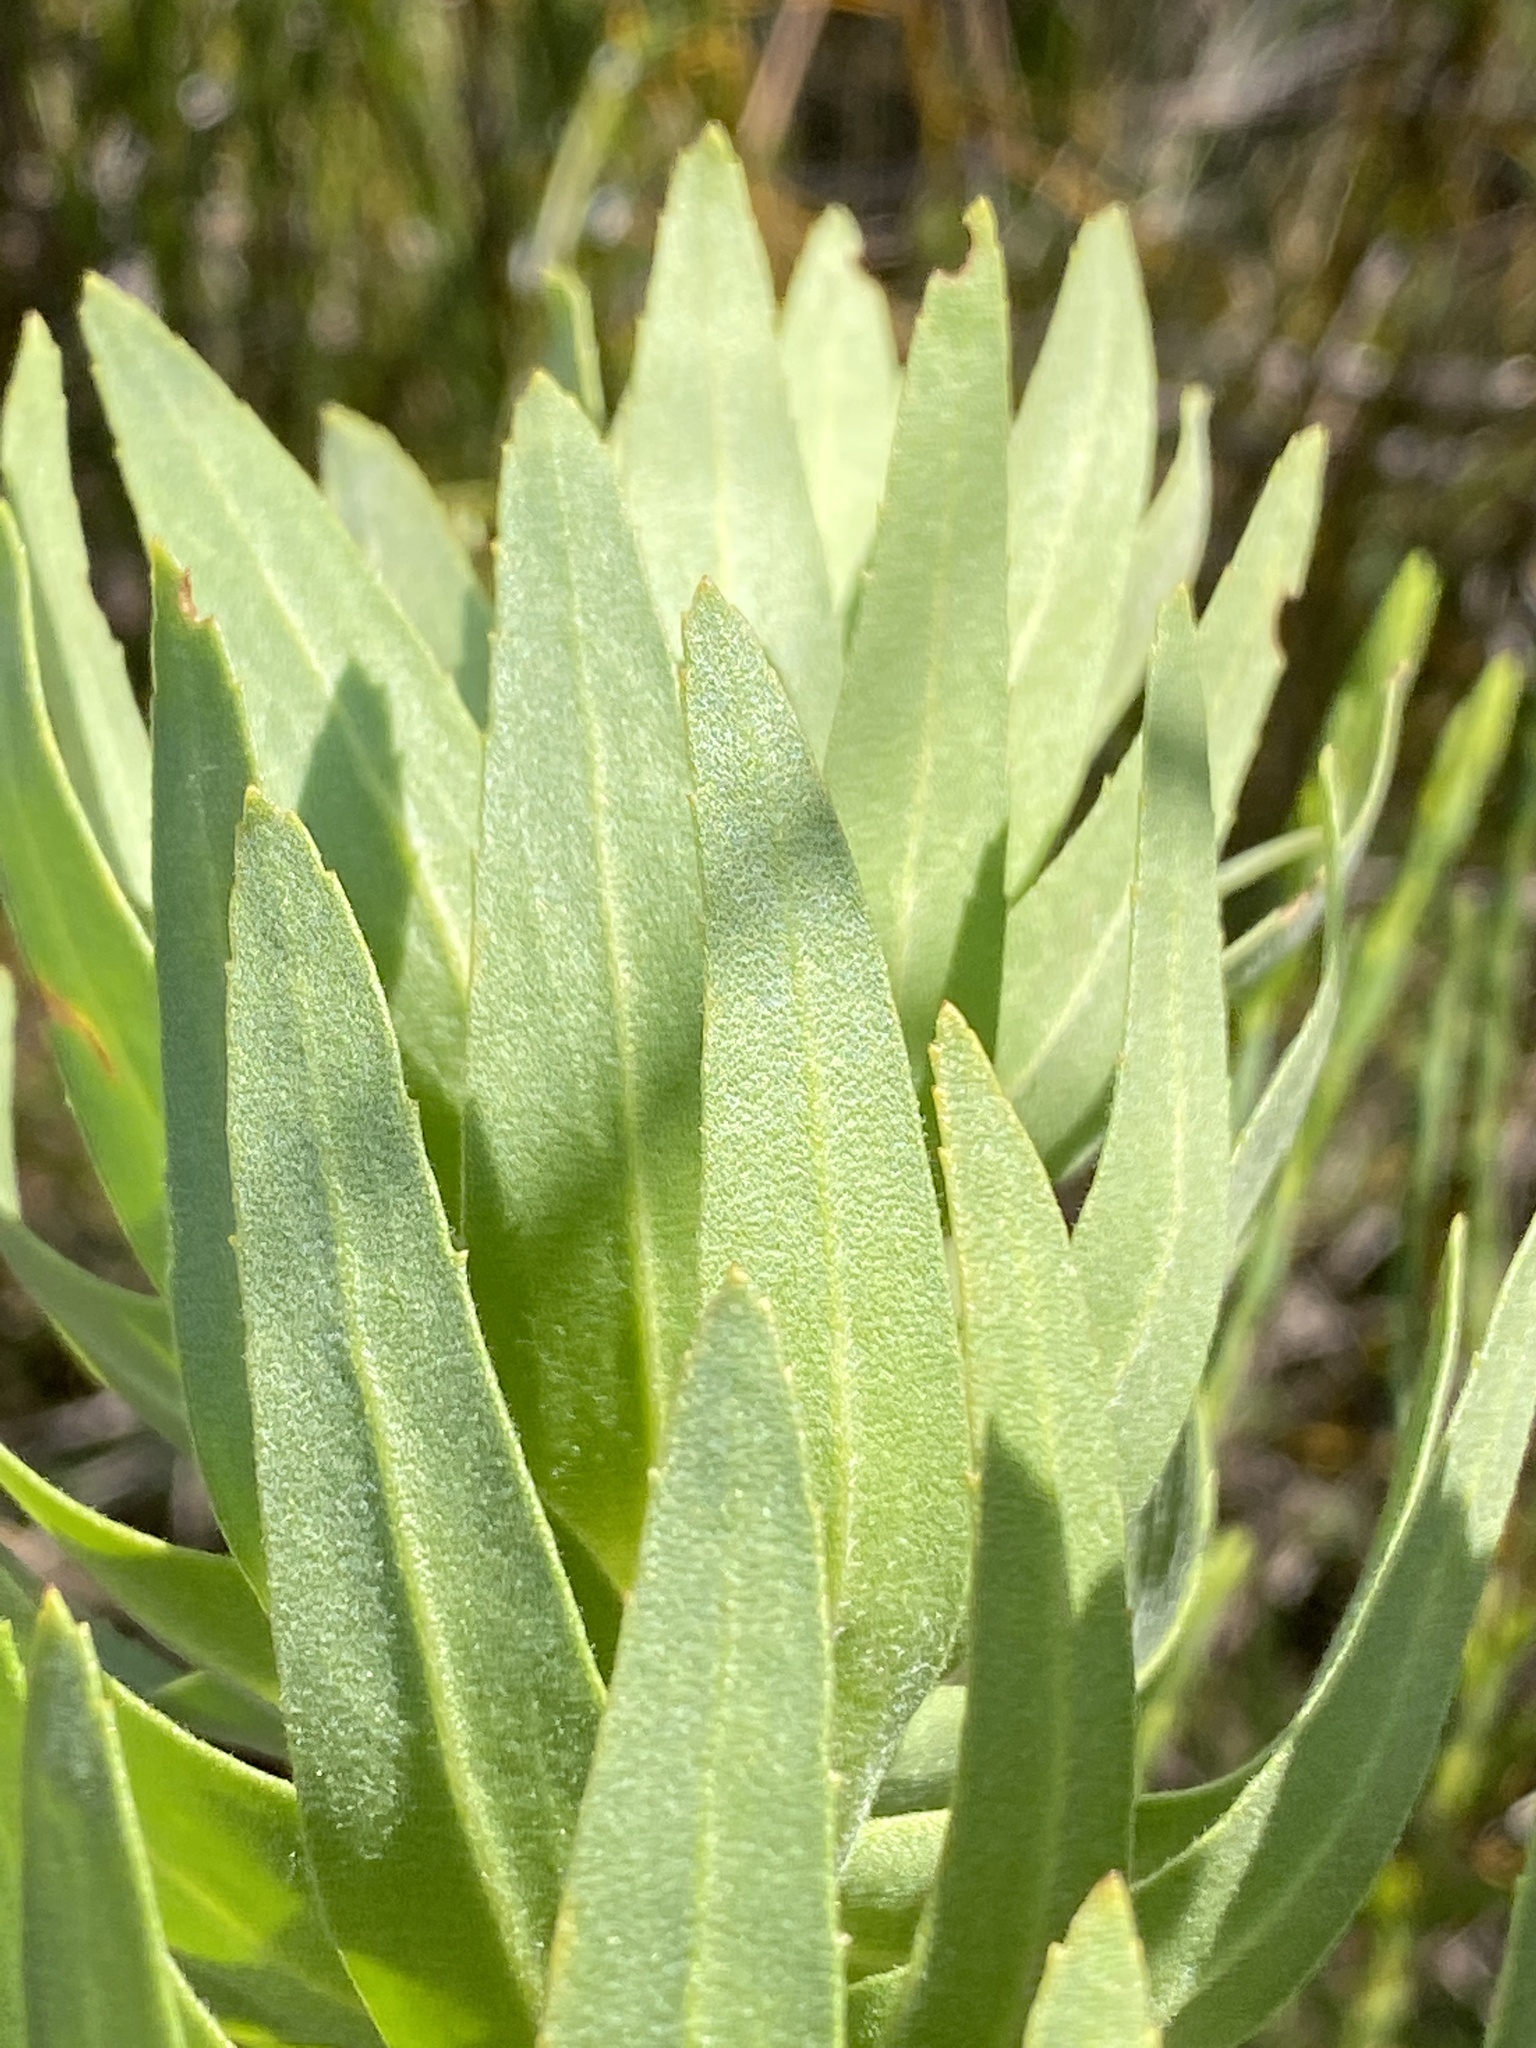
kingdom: Plantae
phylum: Tracheophyta
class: Magnoliopsida
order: Asterales
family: Asteraceae
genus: Osmitopsis
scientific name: Osmitopsis asteriscoides
